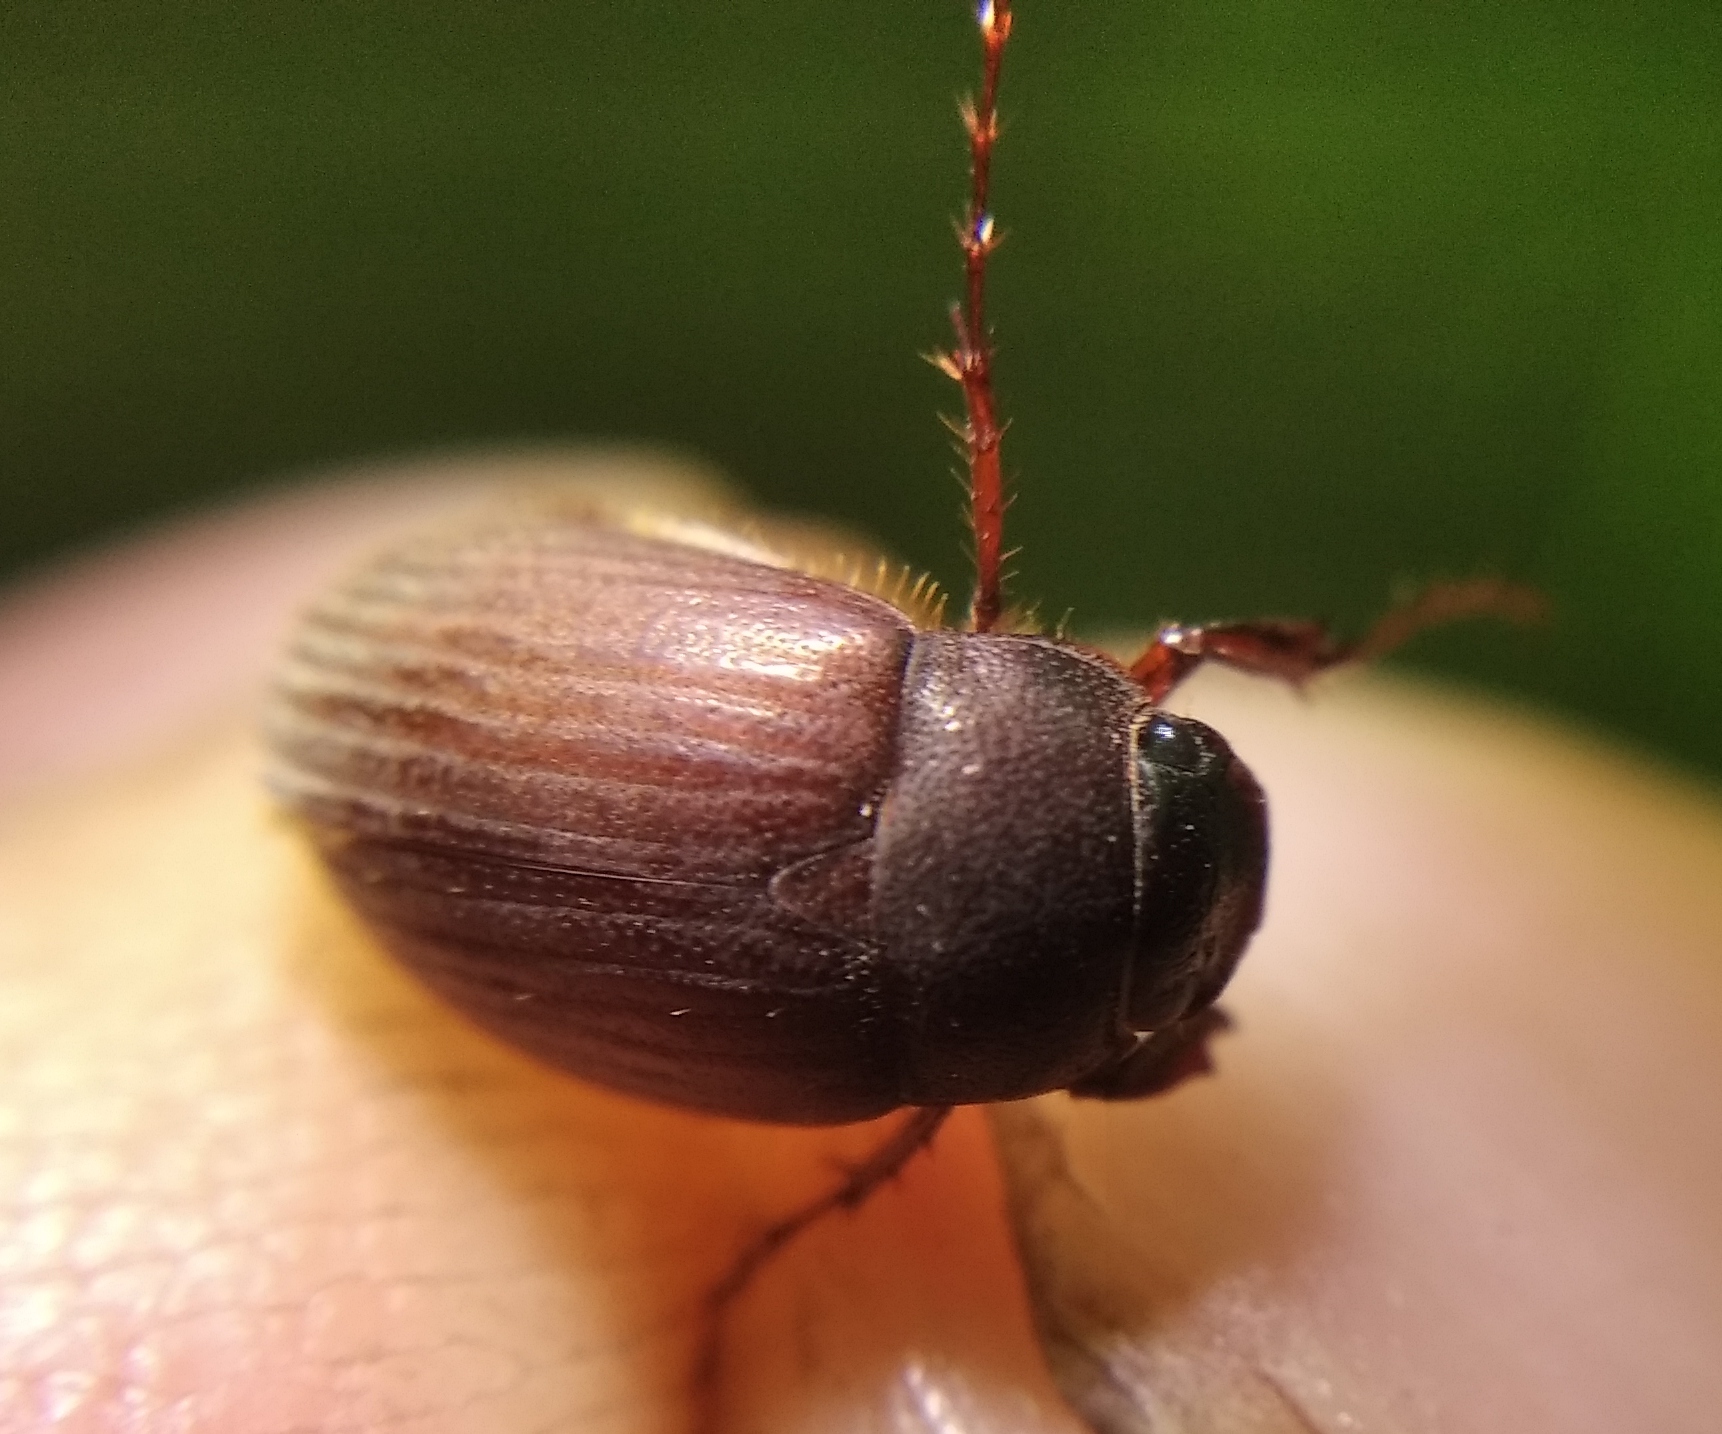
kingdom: Animalia
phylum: Arthropoda
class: Insecta
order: Coleoptera
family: Scarabaeidae
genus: Maladera
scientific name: Maladera holosericea
